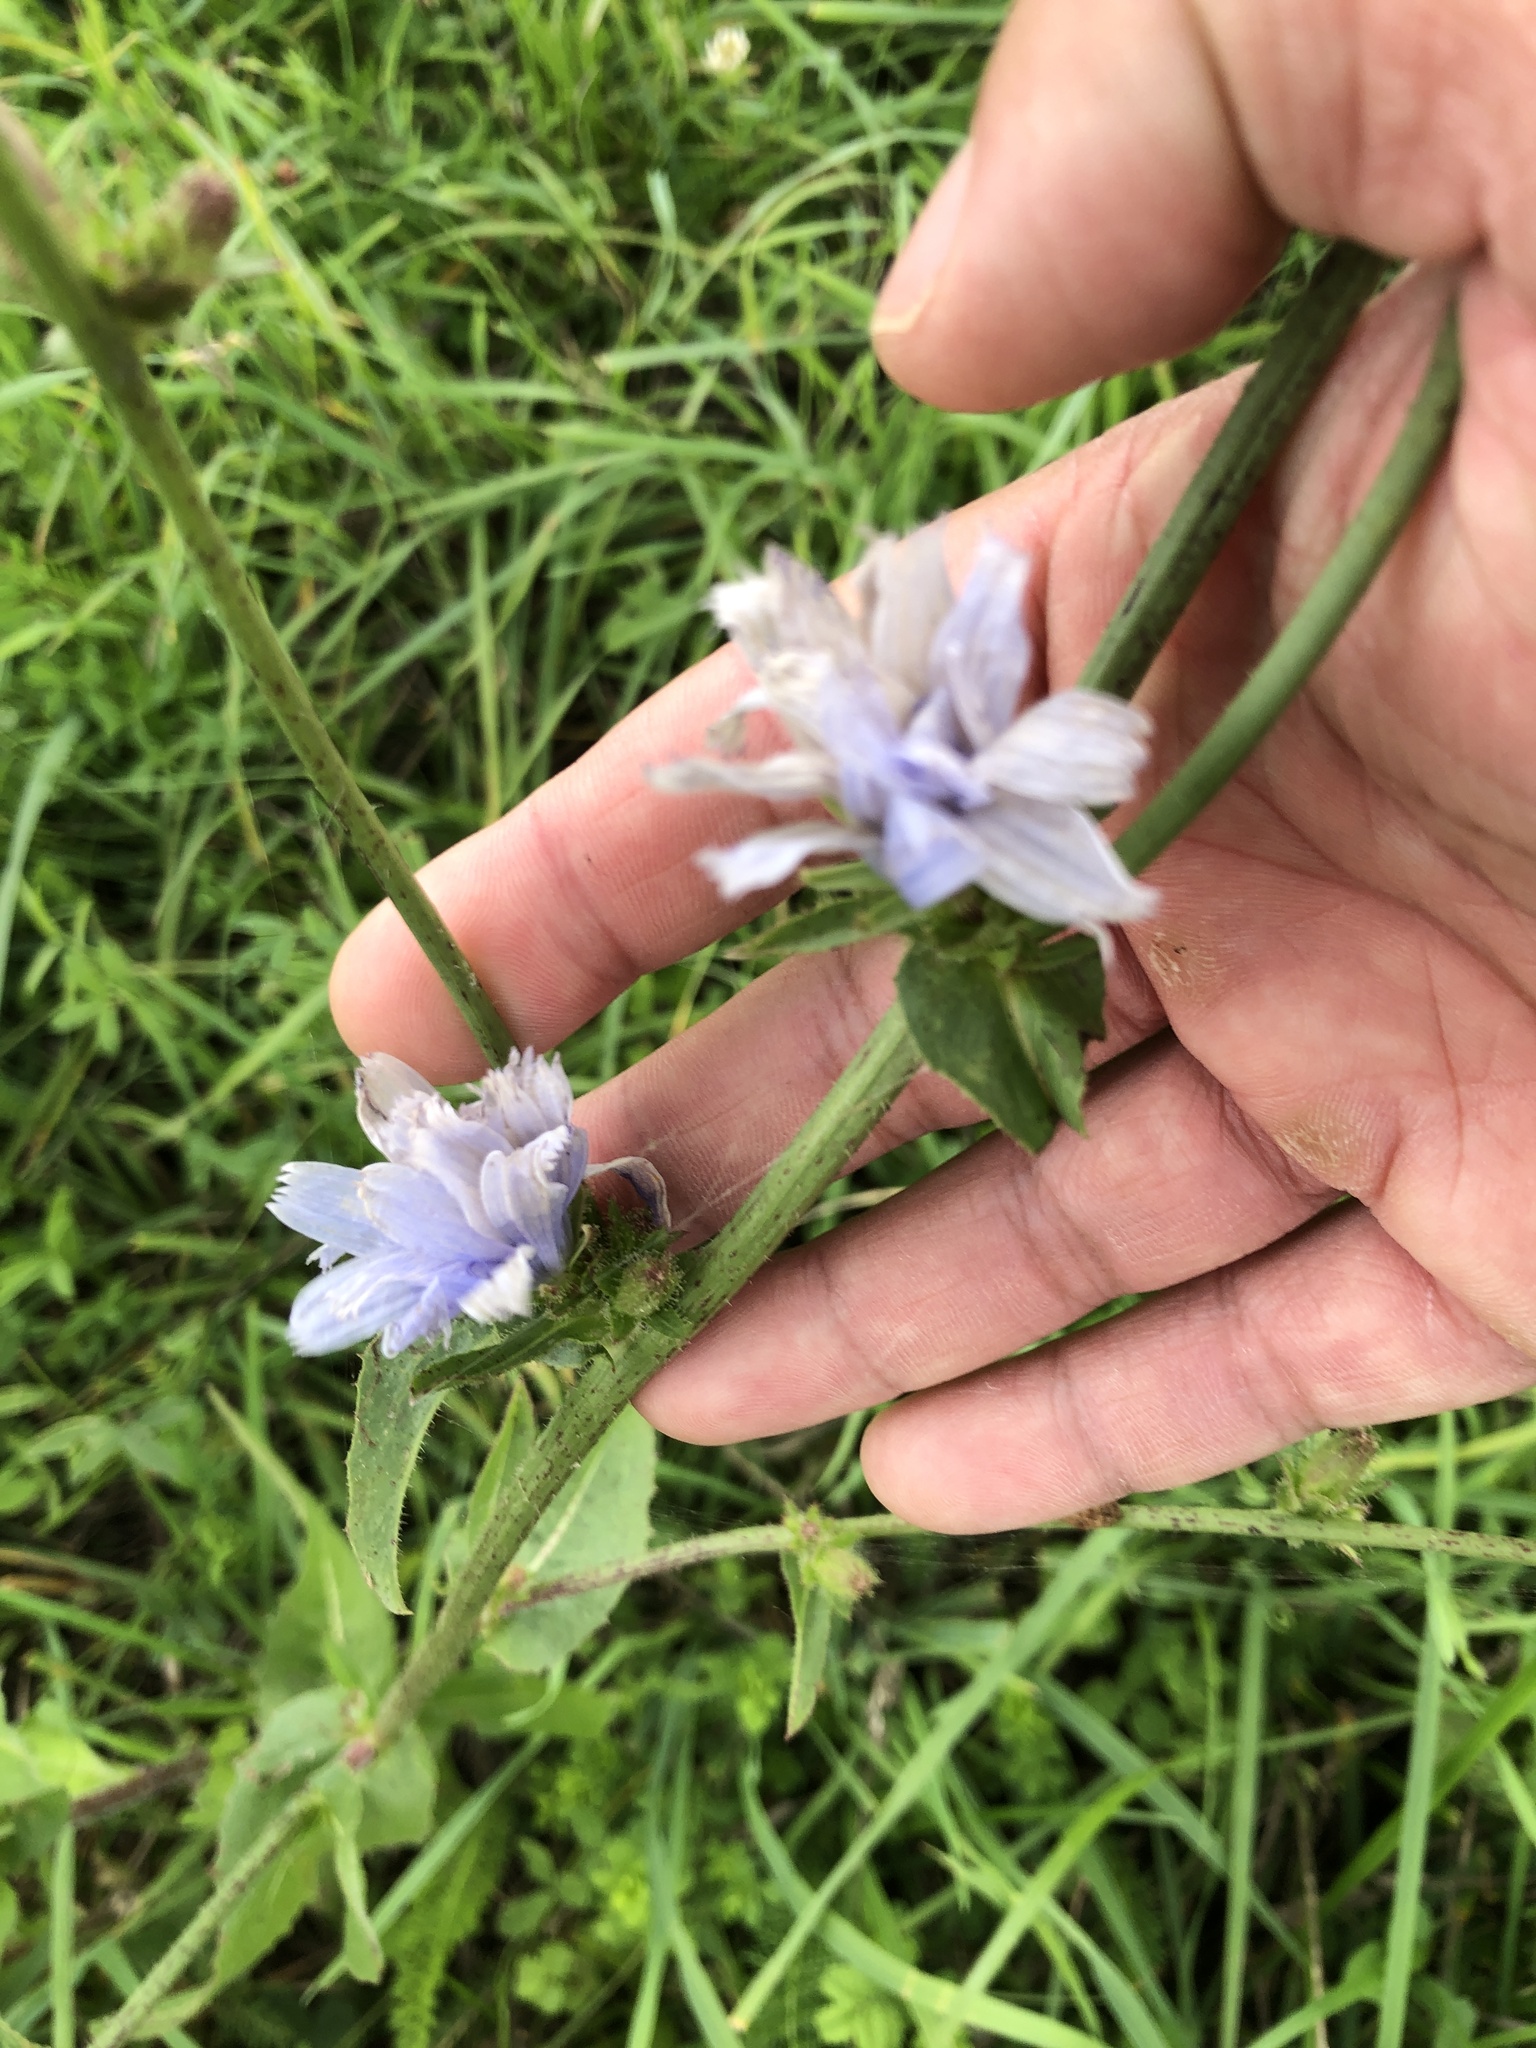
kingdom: Plantae
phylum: Tracheophyta
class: Magnoliopsida
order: Asterales
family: Asteraceae
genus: Cichorium
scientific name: Cichorium intybus
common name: Chicory
